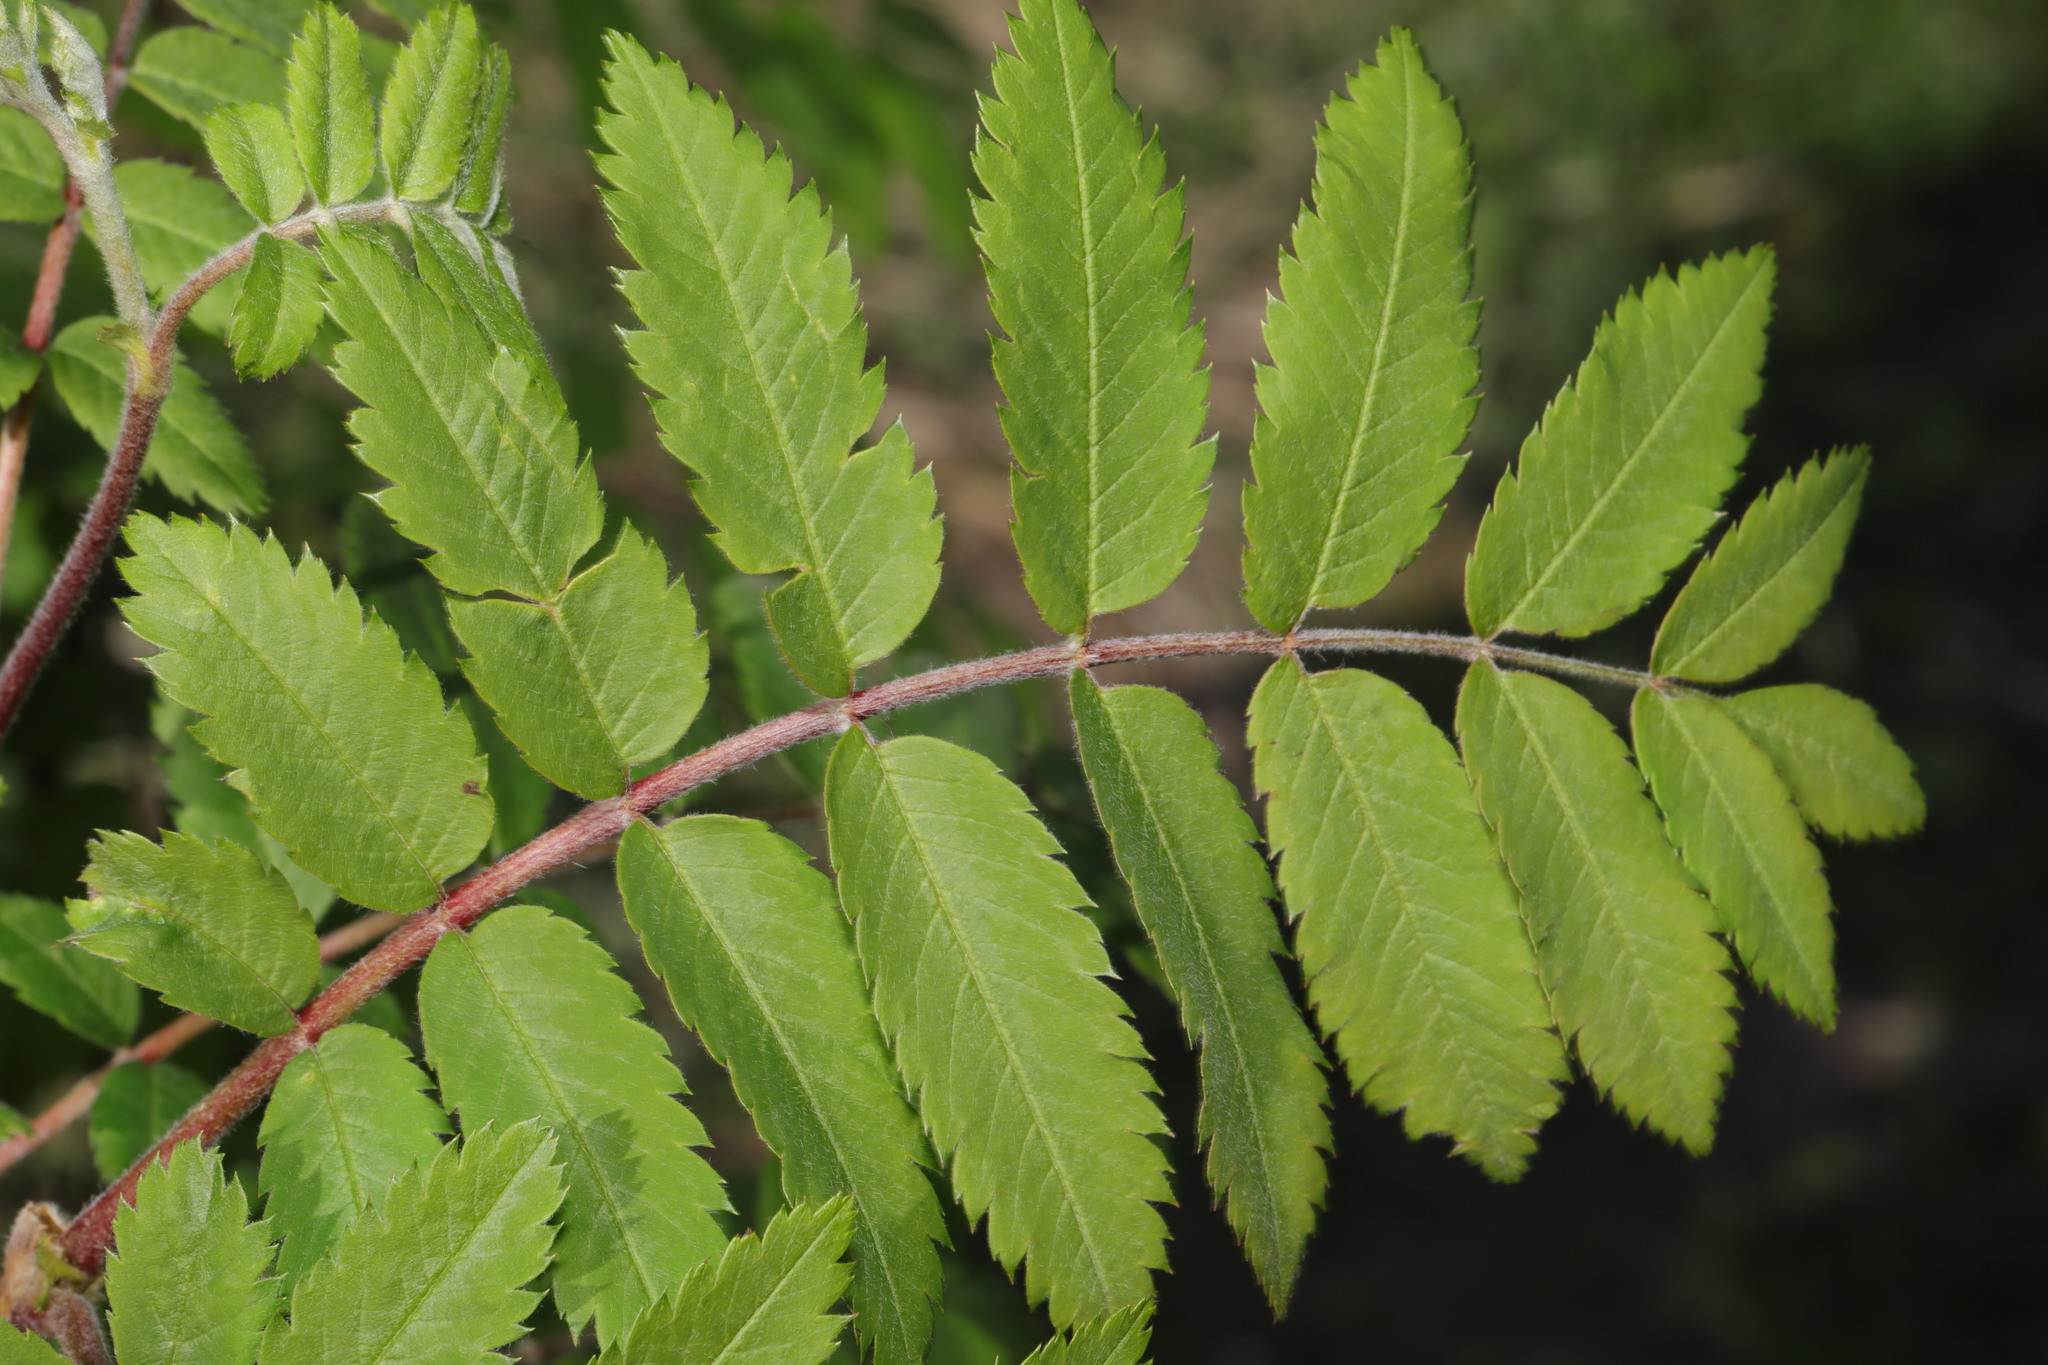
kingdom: Plantae
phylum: Tracheophyta
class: Magnoliopsida
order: Rosales
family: Rosaceae
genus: Sorbus
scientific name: Sorbus aucuparia
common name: Rowan
